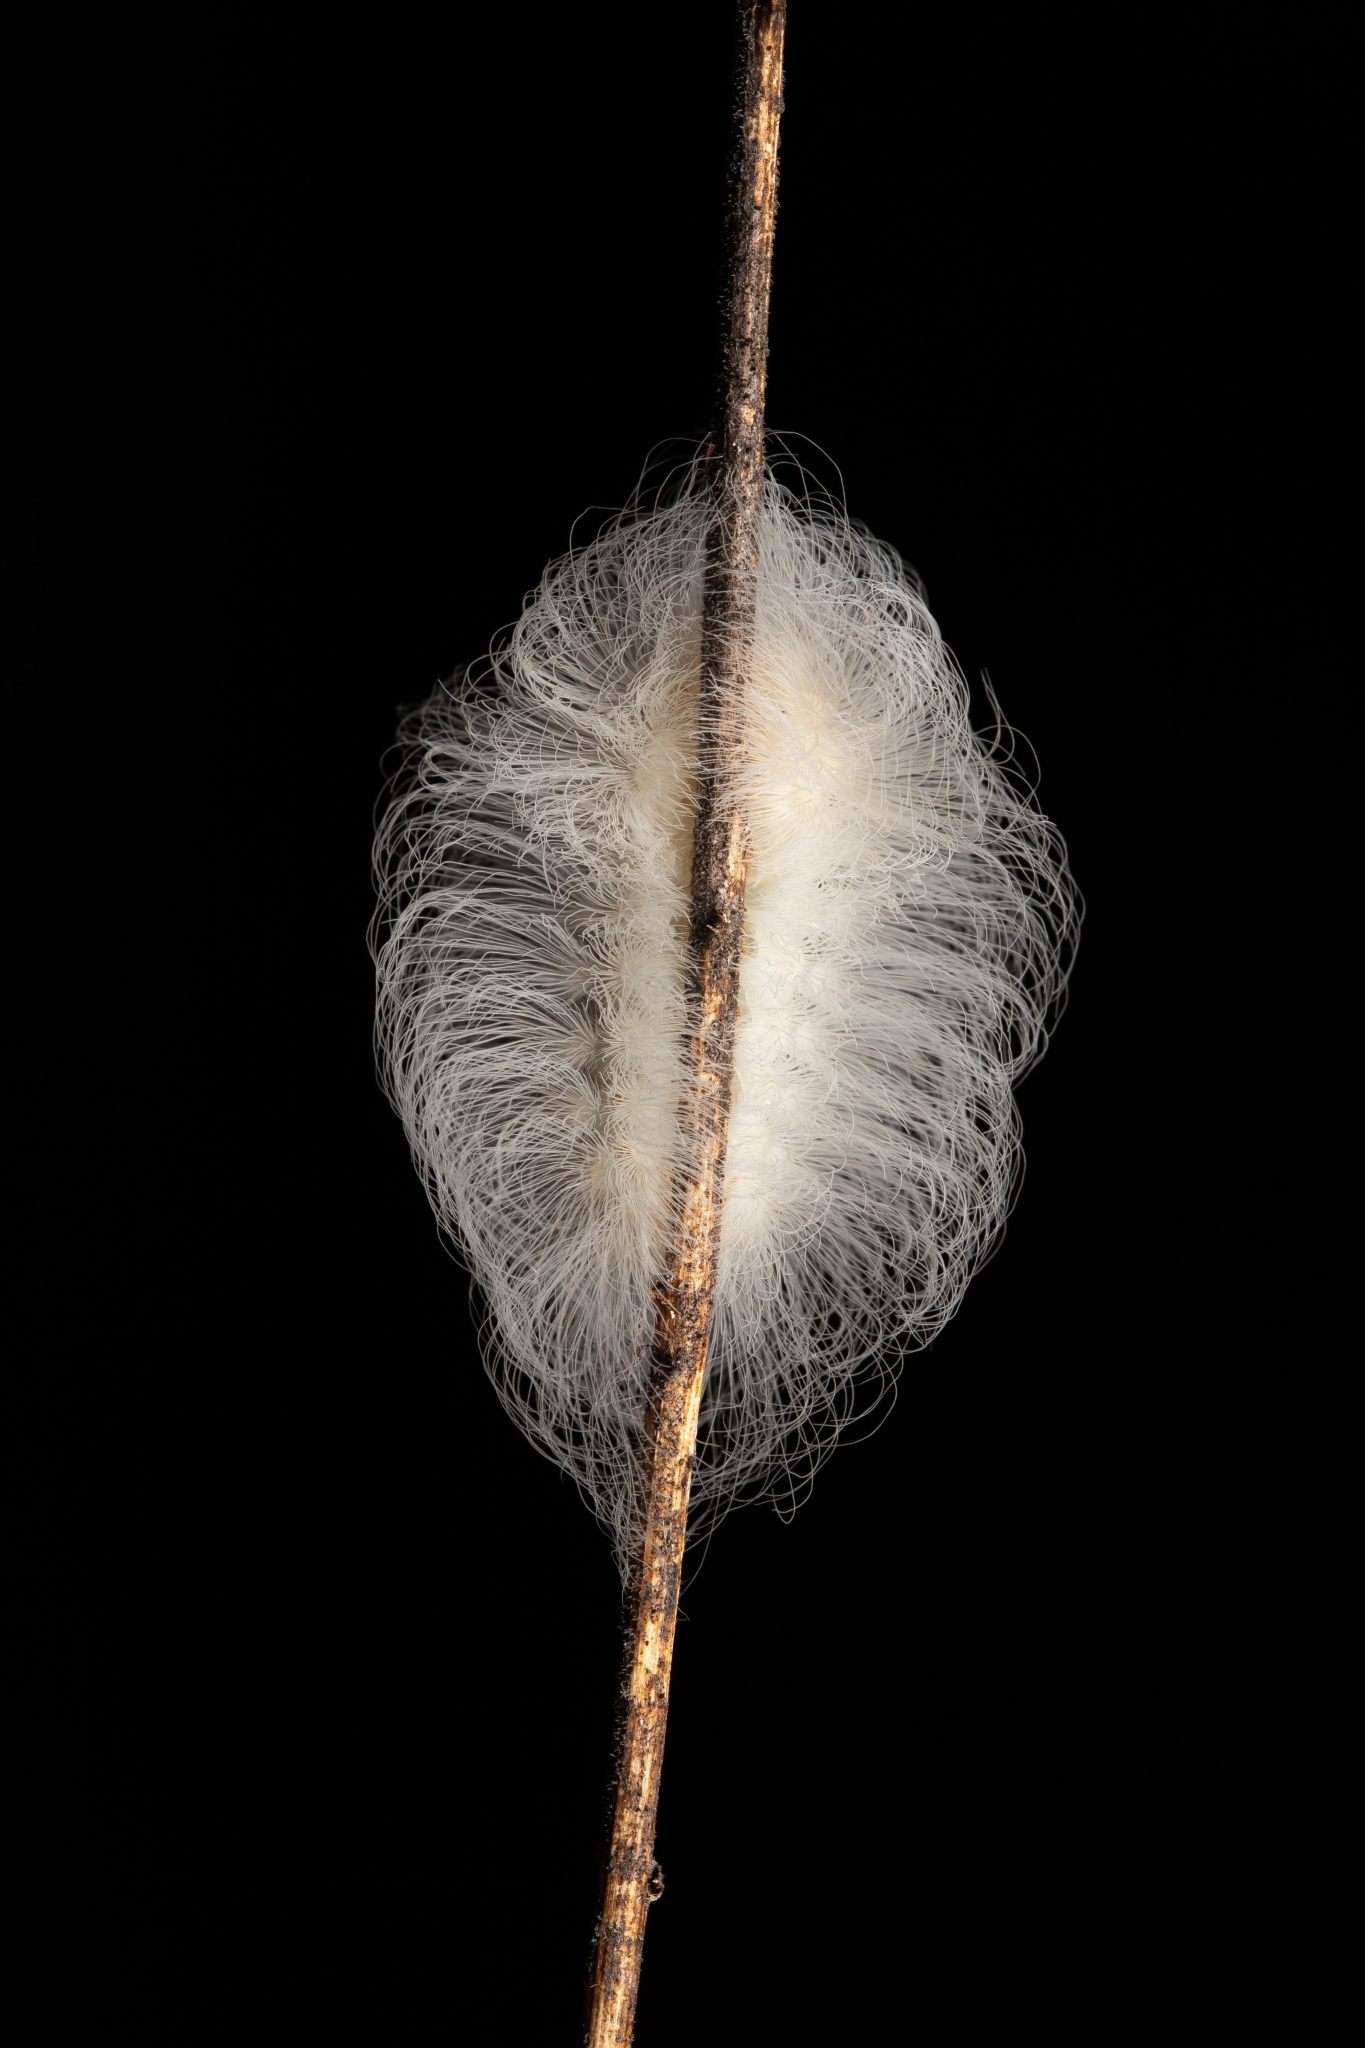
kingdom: Animalia
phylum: Arthropoda
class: Insecta
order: Lepidoptera
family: Megalopygidae
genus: Megalopyge
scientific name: Megalopyge crispata
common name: Black-waved flannel moth
